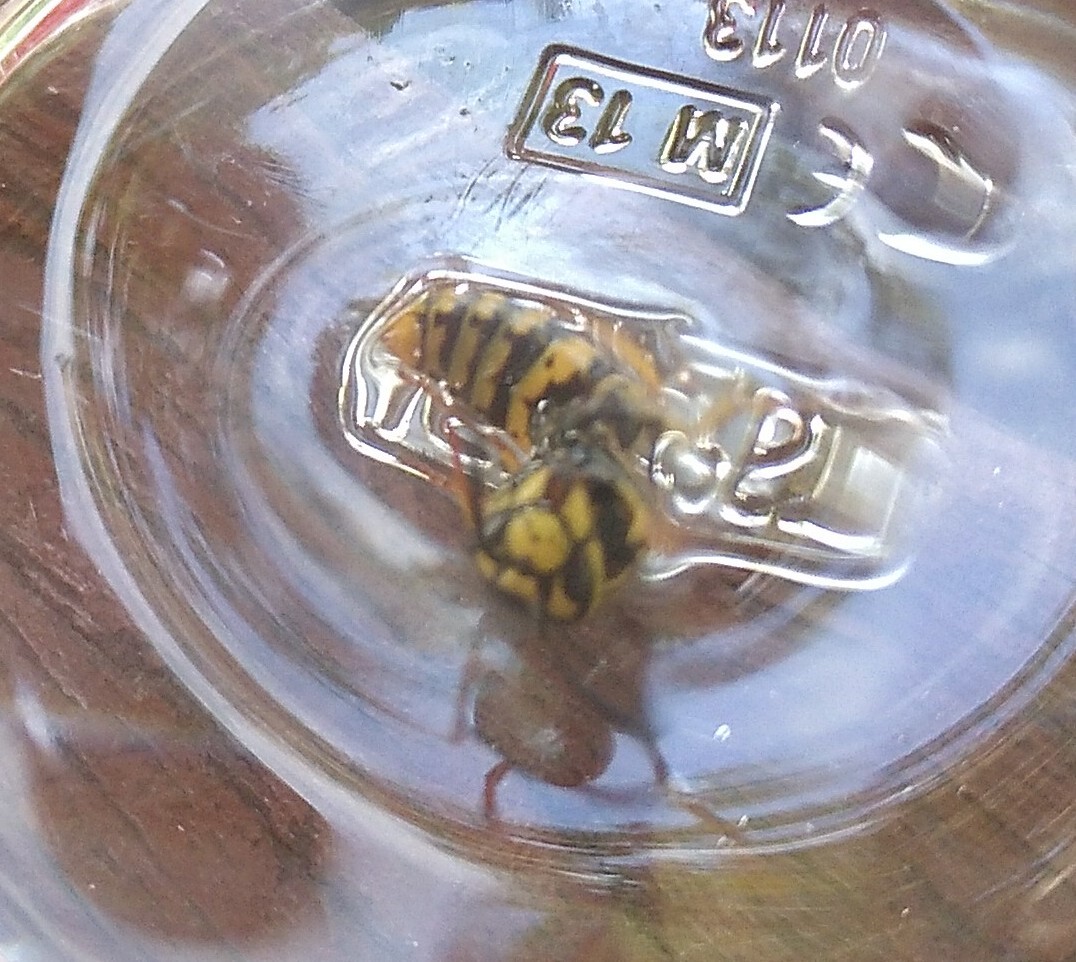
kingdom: Animalia
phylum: Arthropoda
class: Insecta
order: Hymenoptera
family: Vespidae
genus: Vespula
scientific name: Vespula germanica
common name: German wasp
